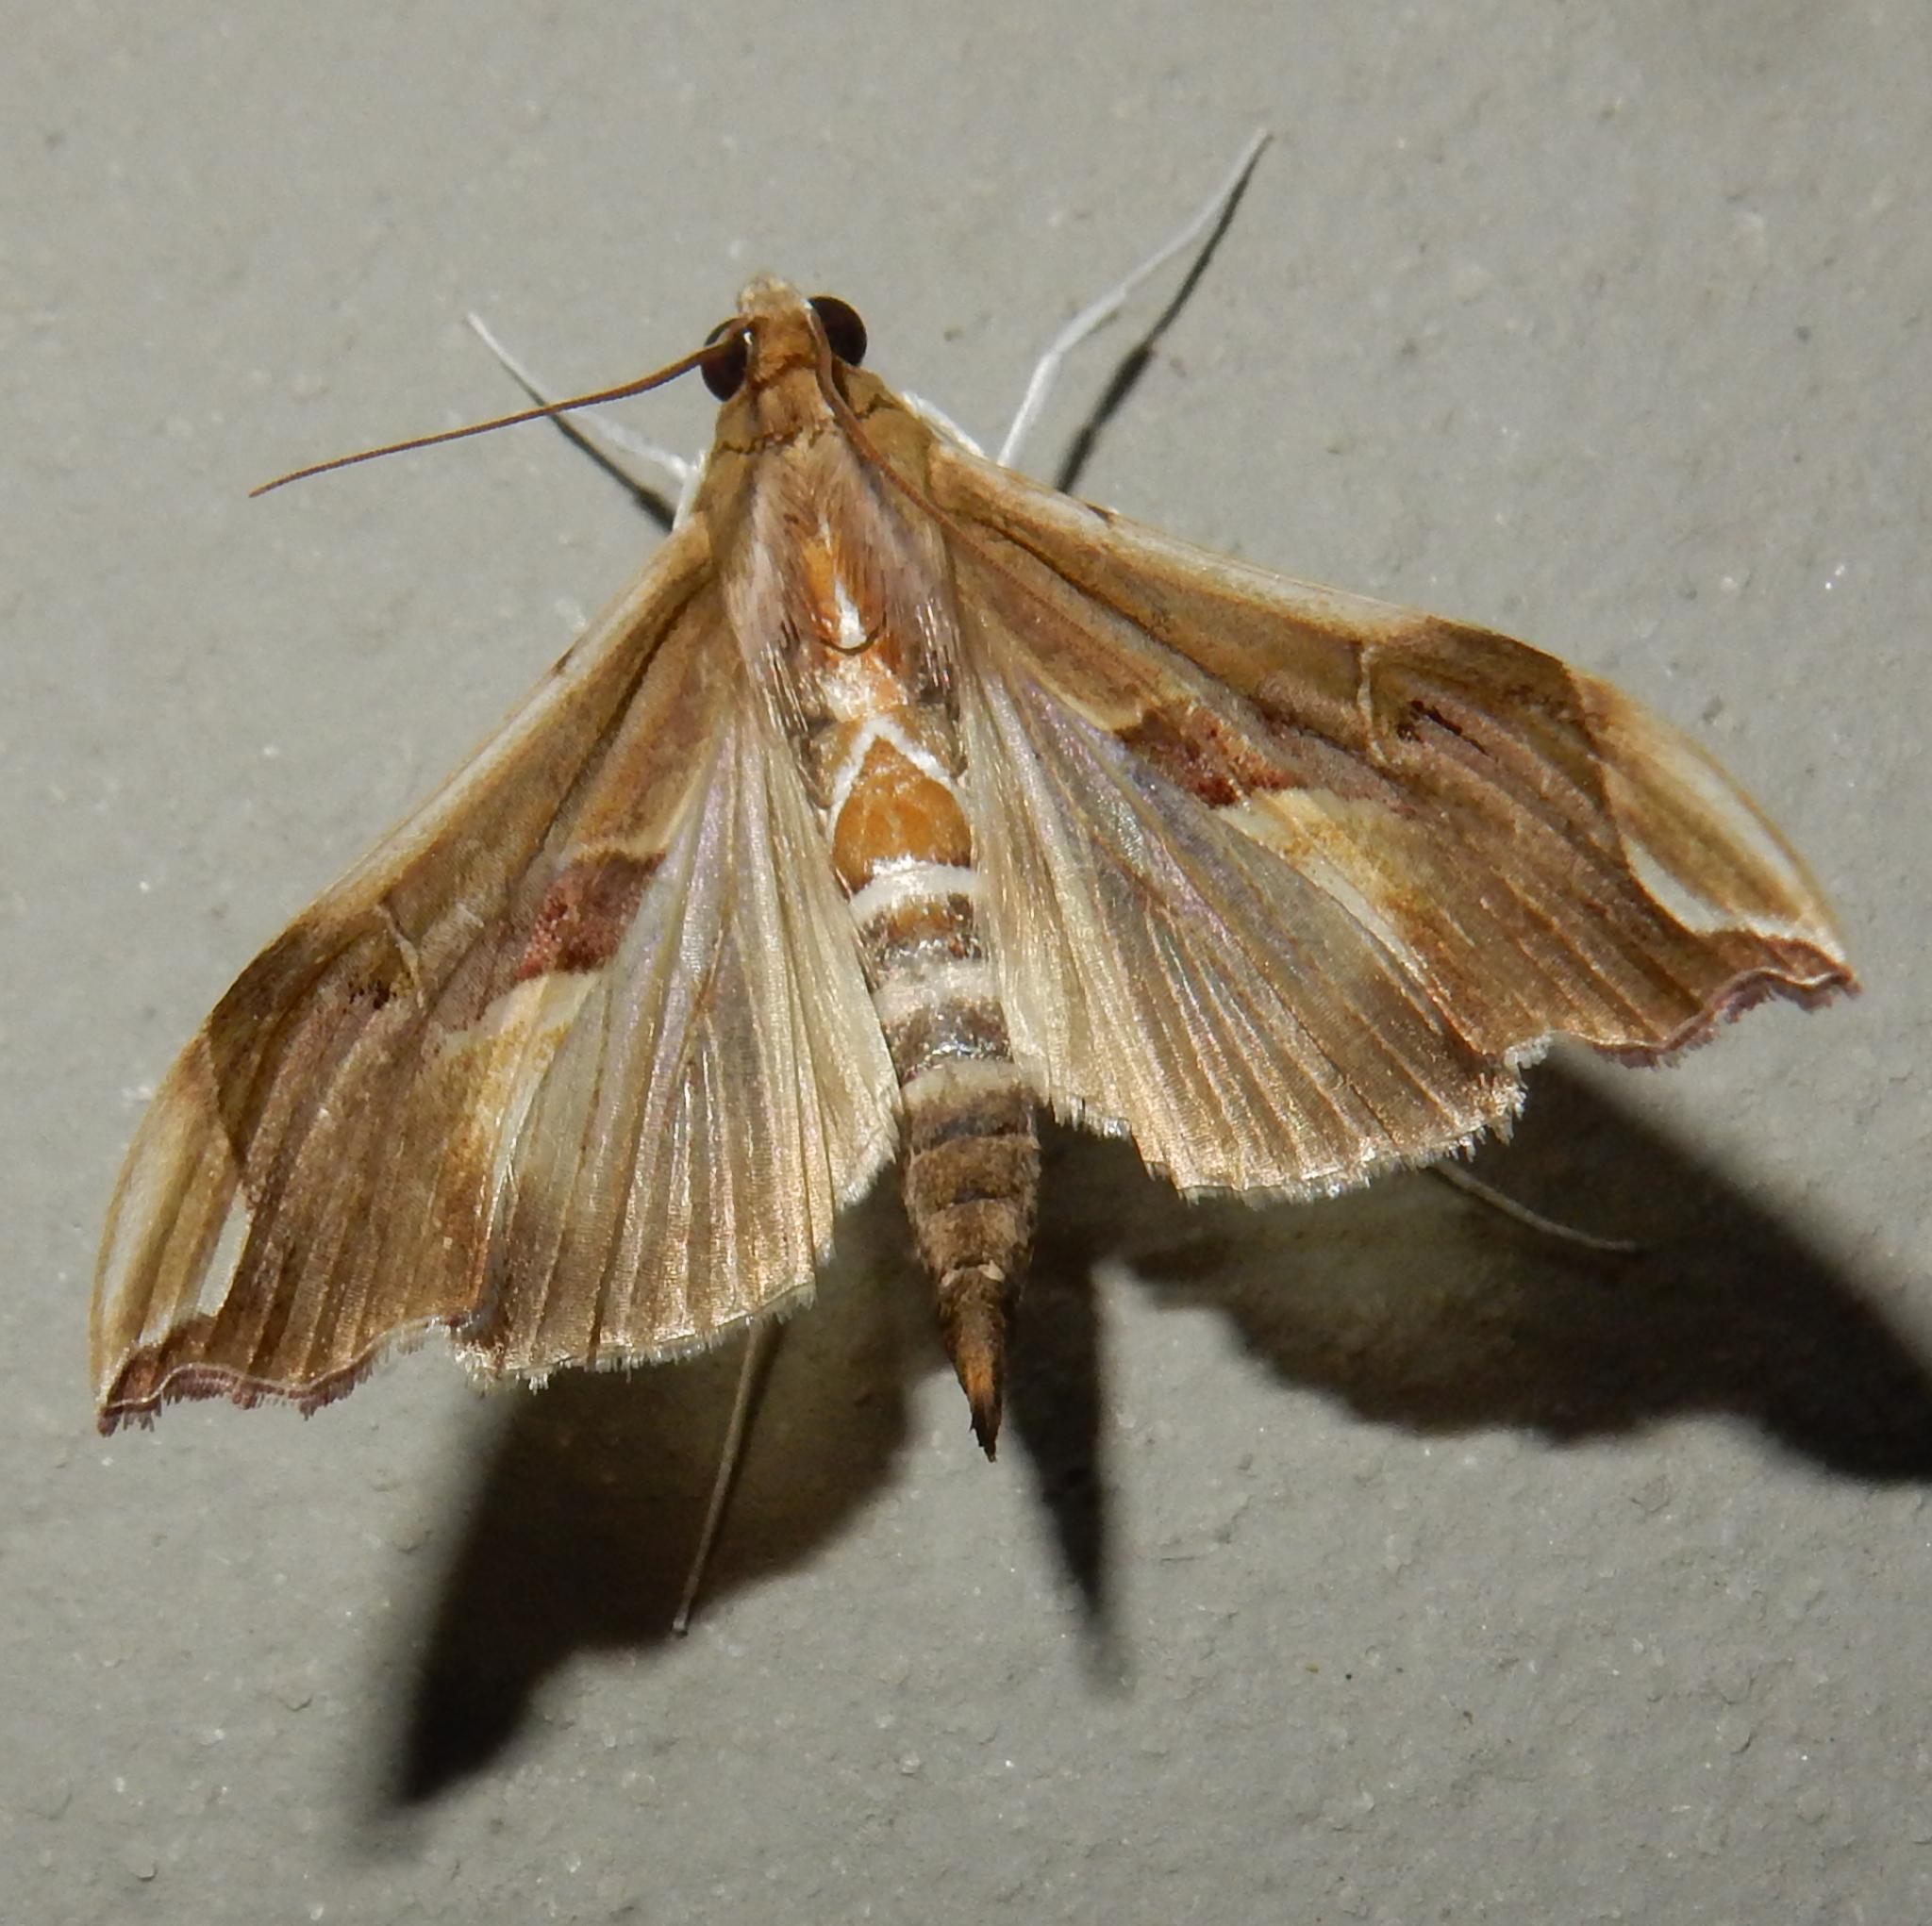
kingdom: Animalia
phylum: Arthropoda
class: Insecta
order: Lepidoptera
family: Crambidae
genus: Agathodes
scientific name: Agathodes musivalis
